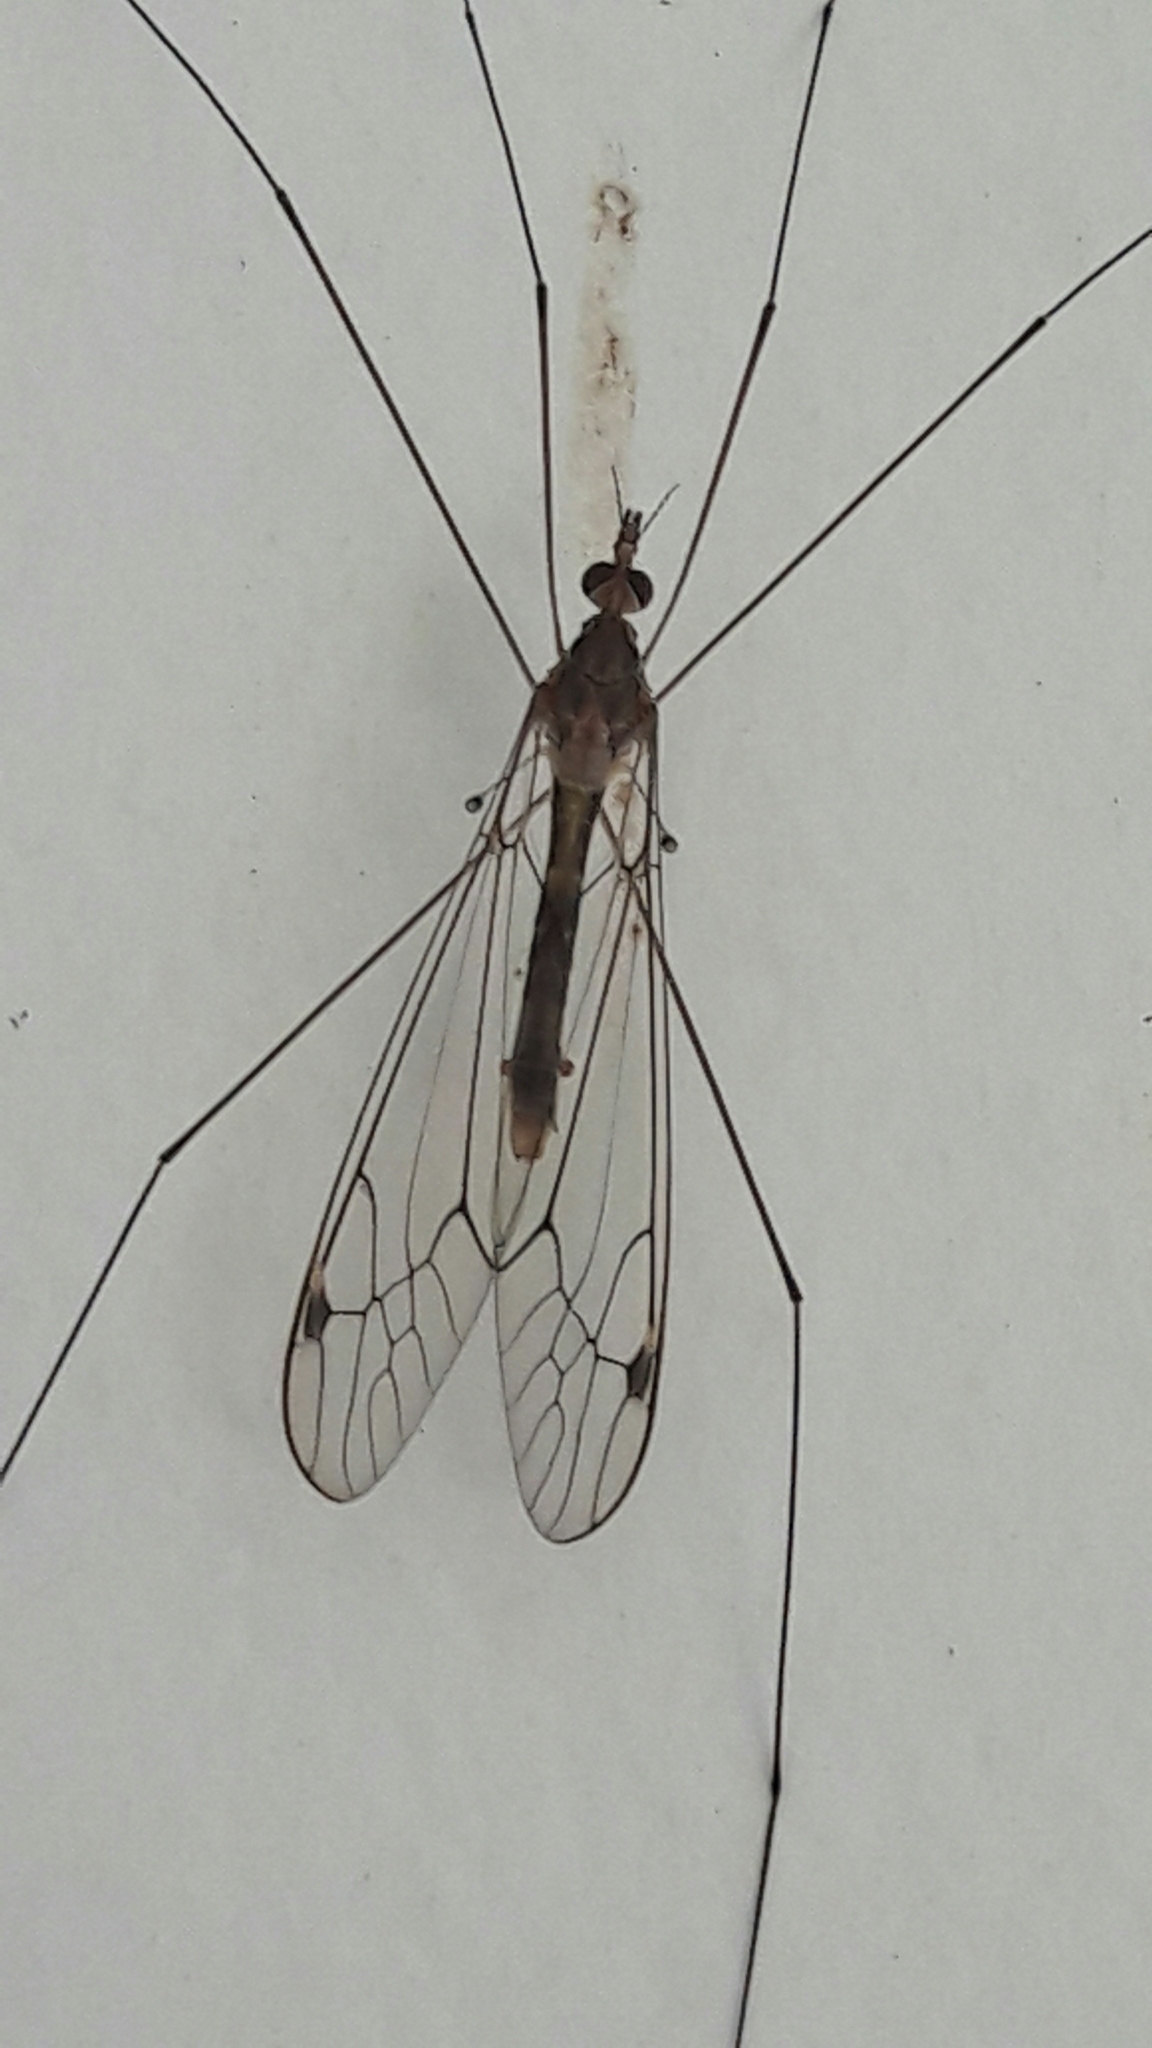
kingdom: Animalia
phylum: Arthropoda
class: Insecta
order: Diptera
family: Tipulidae
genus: Maekistocera
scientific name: Maekistocera longipennis
